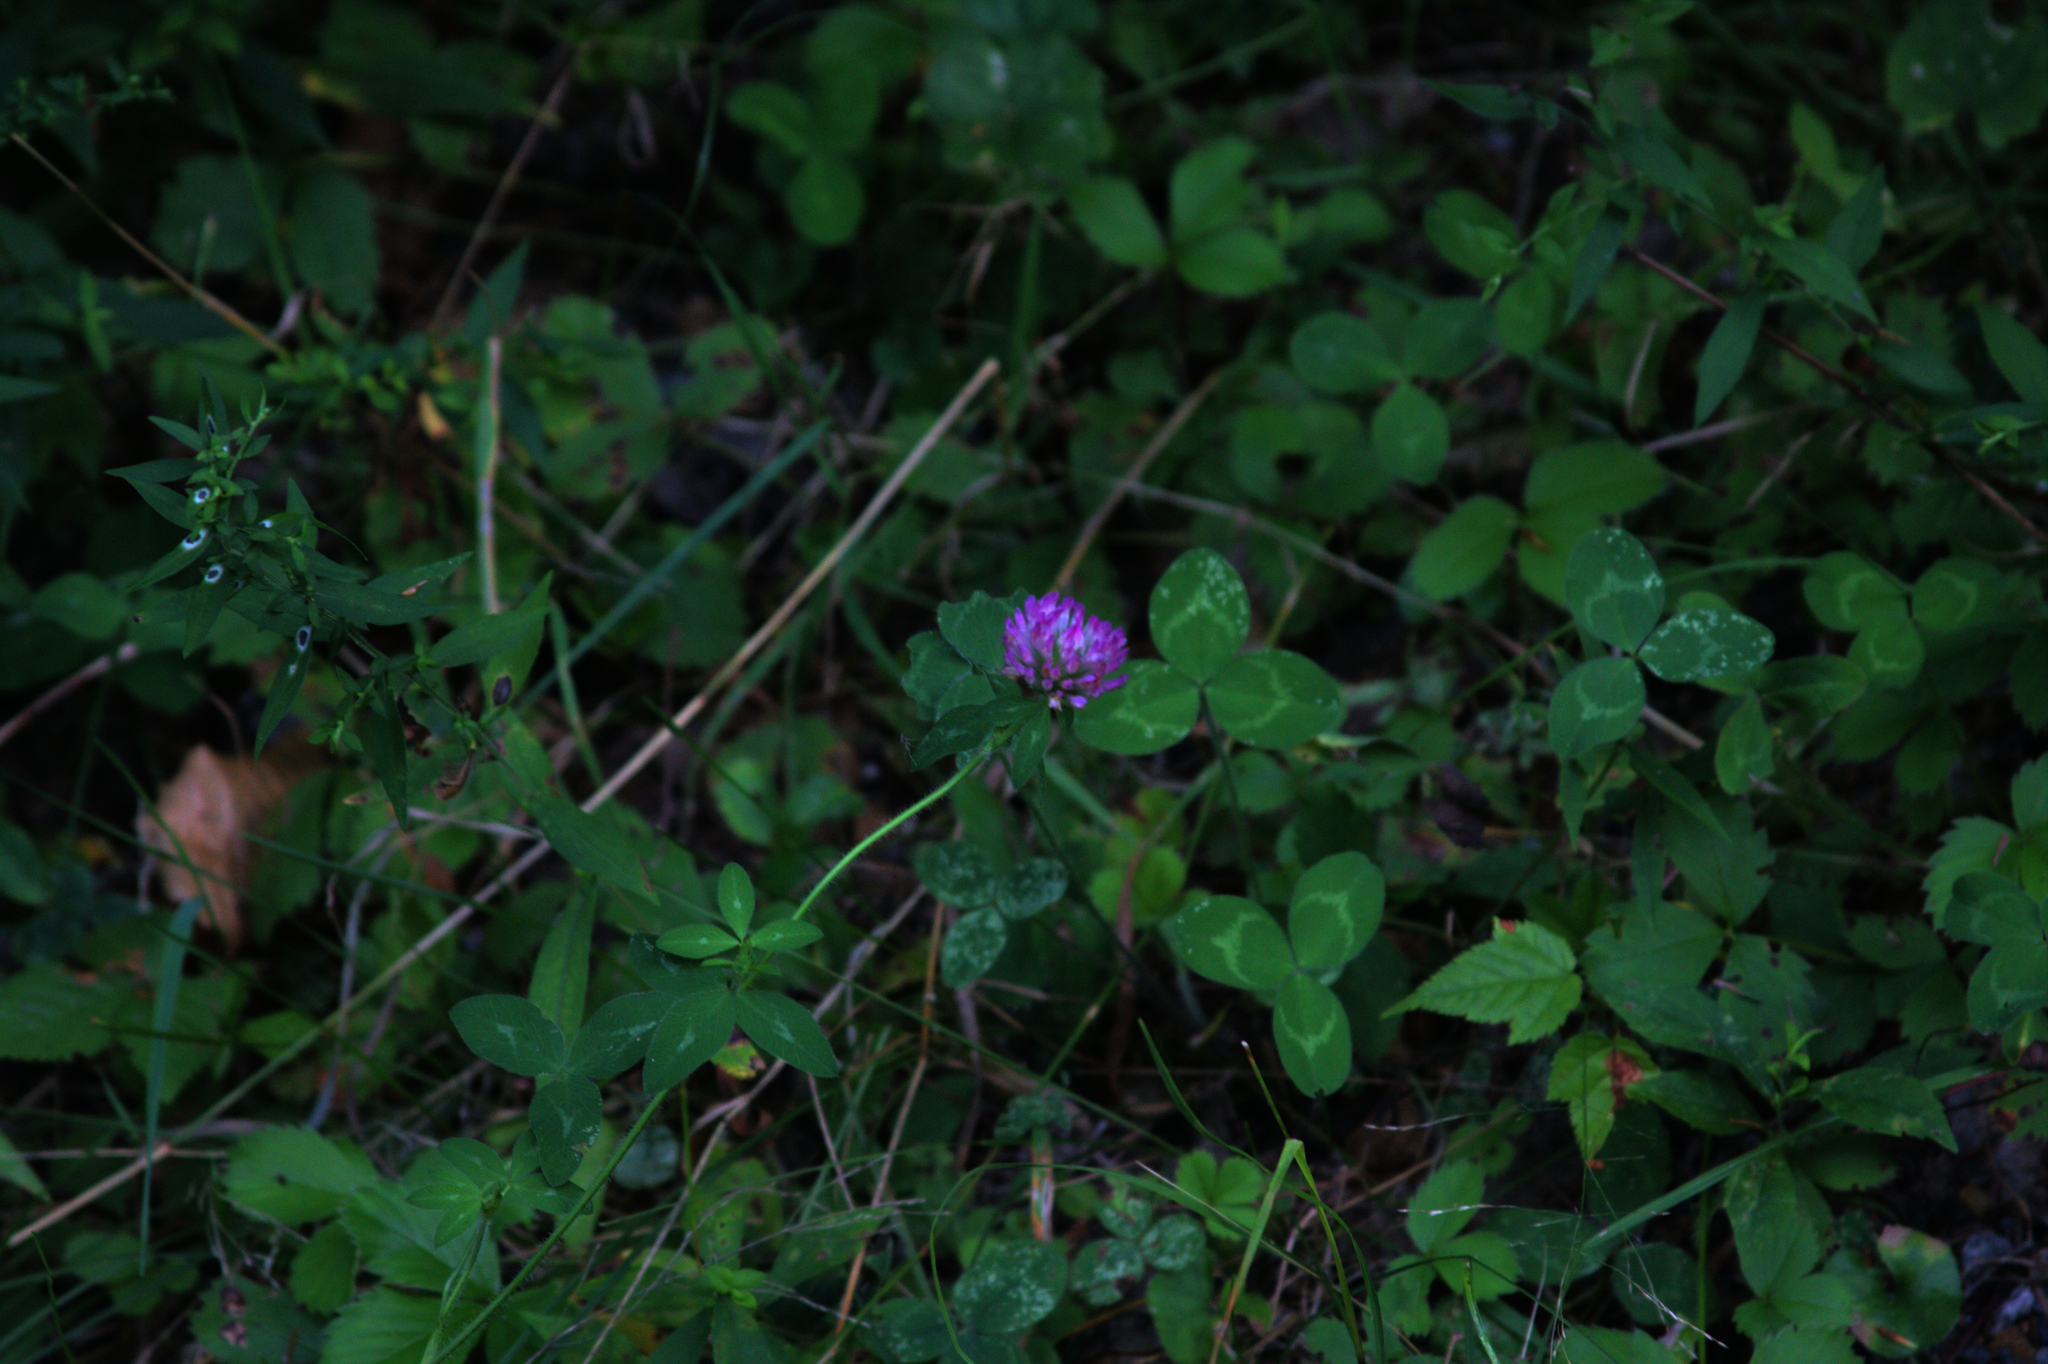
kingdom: Plantae
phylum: Tracheophyta
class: Magnoliopsida
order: Fabales
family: Fabaceae
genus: Trifolium
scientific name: Trifolium pratense
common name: Red clover
